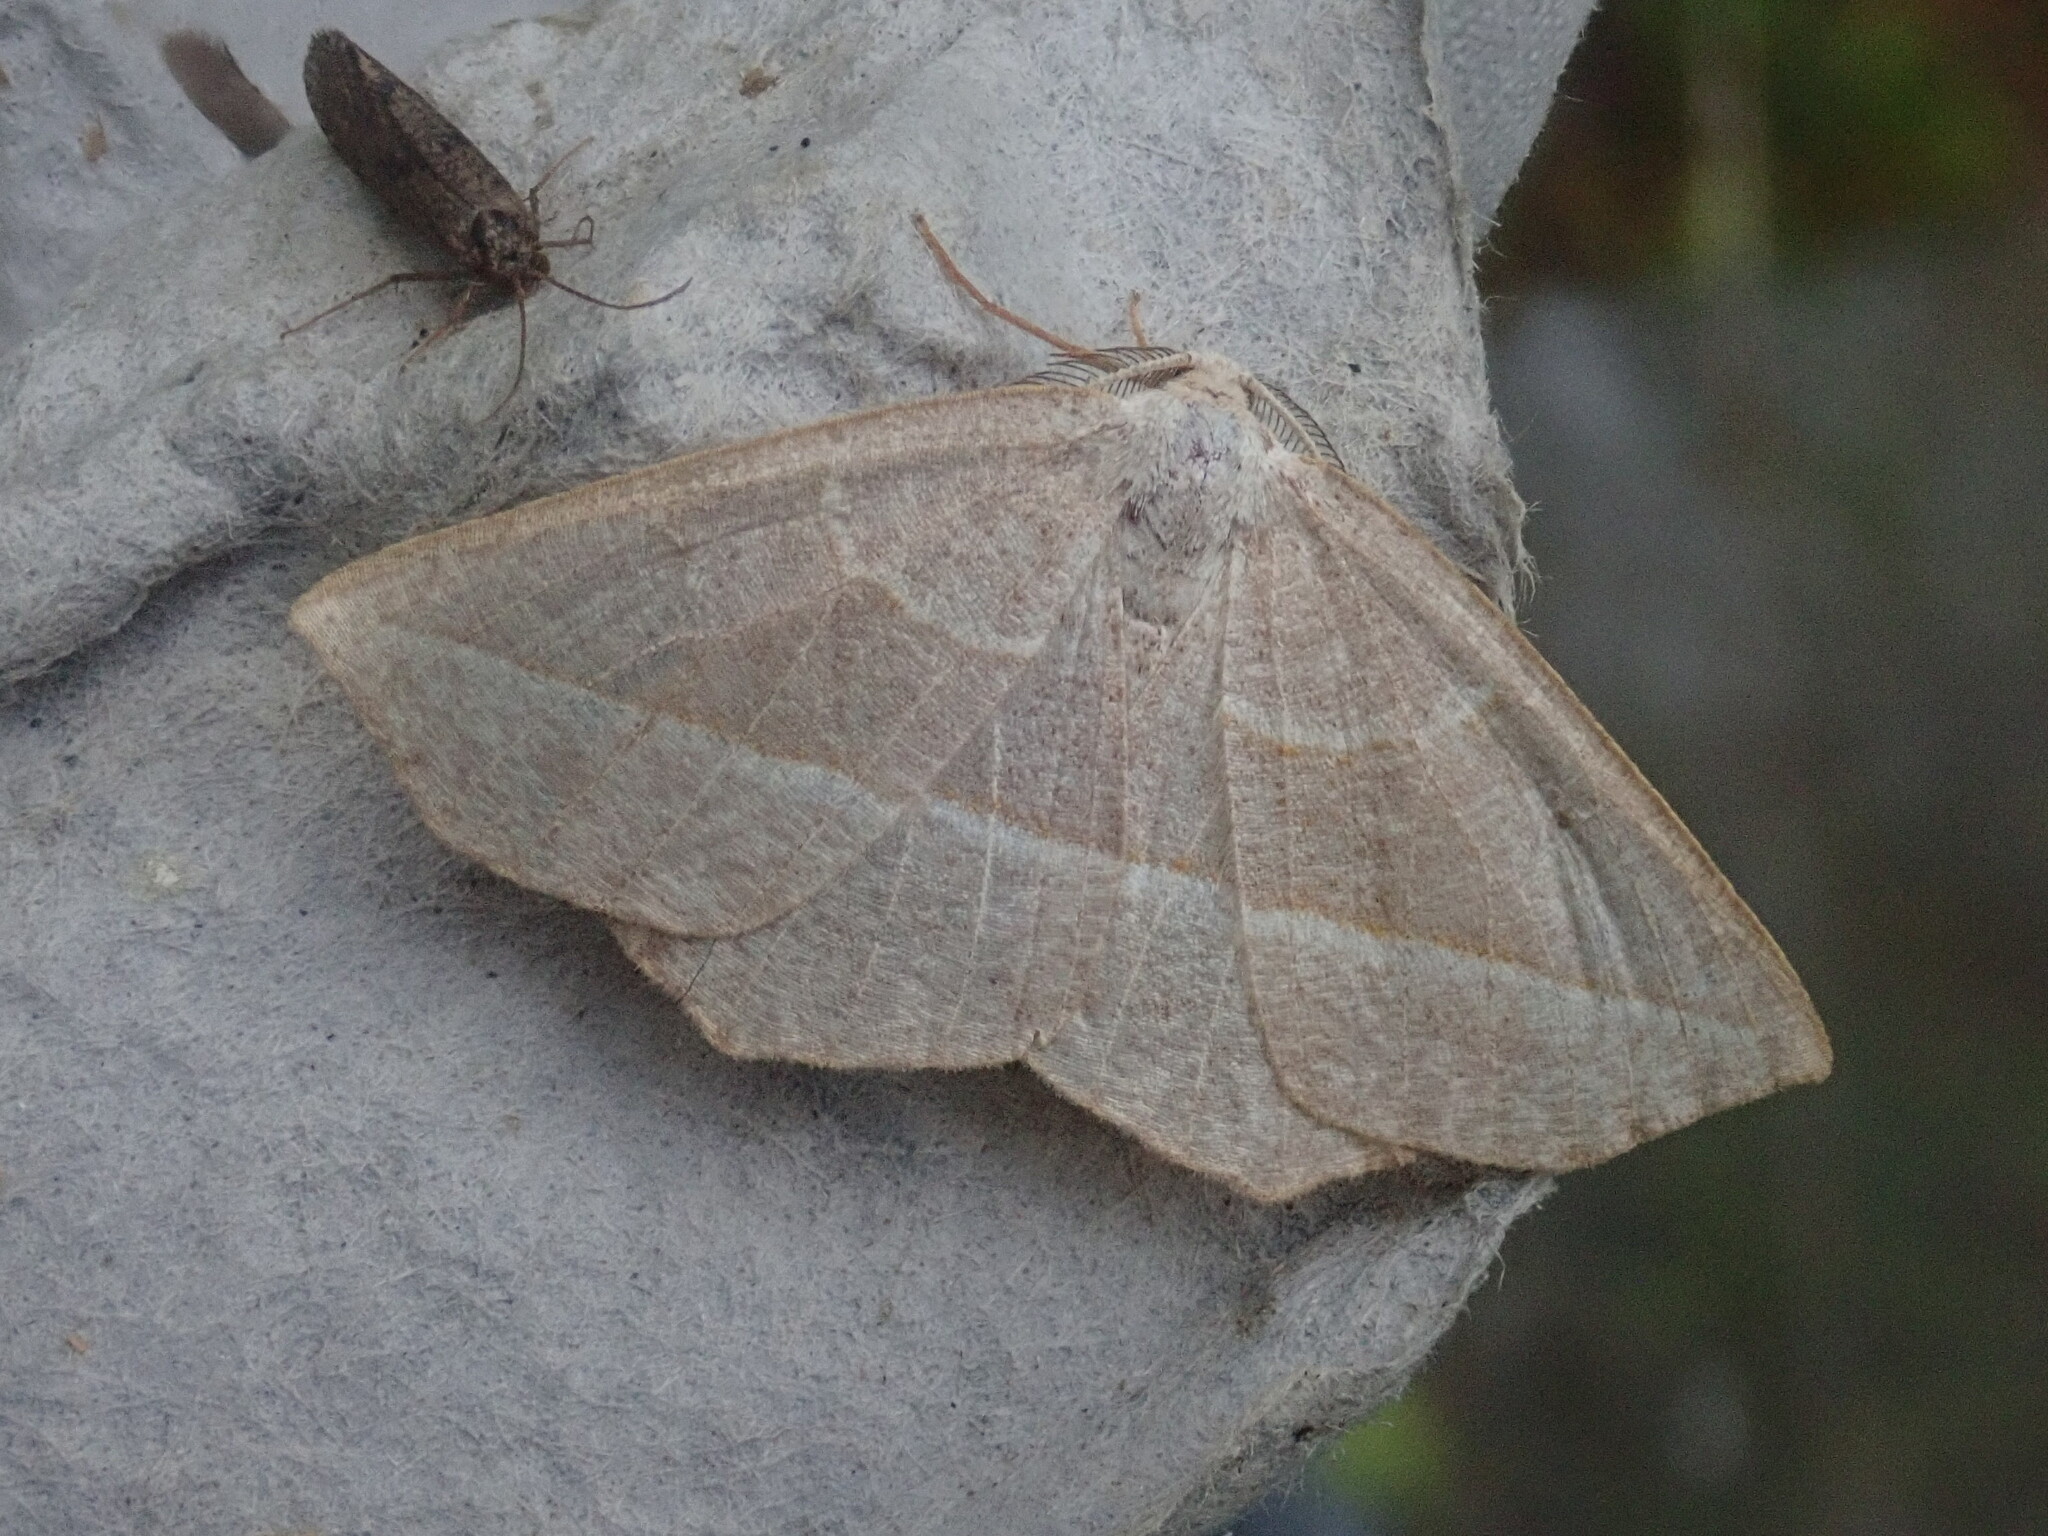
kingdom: Animalia
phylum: Arthropoda
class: Insecta
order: Lepidoptera
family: Geometridae
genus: Eusarca
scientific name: Eusarca confusaria
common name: Confused eusarca
